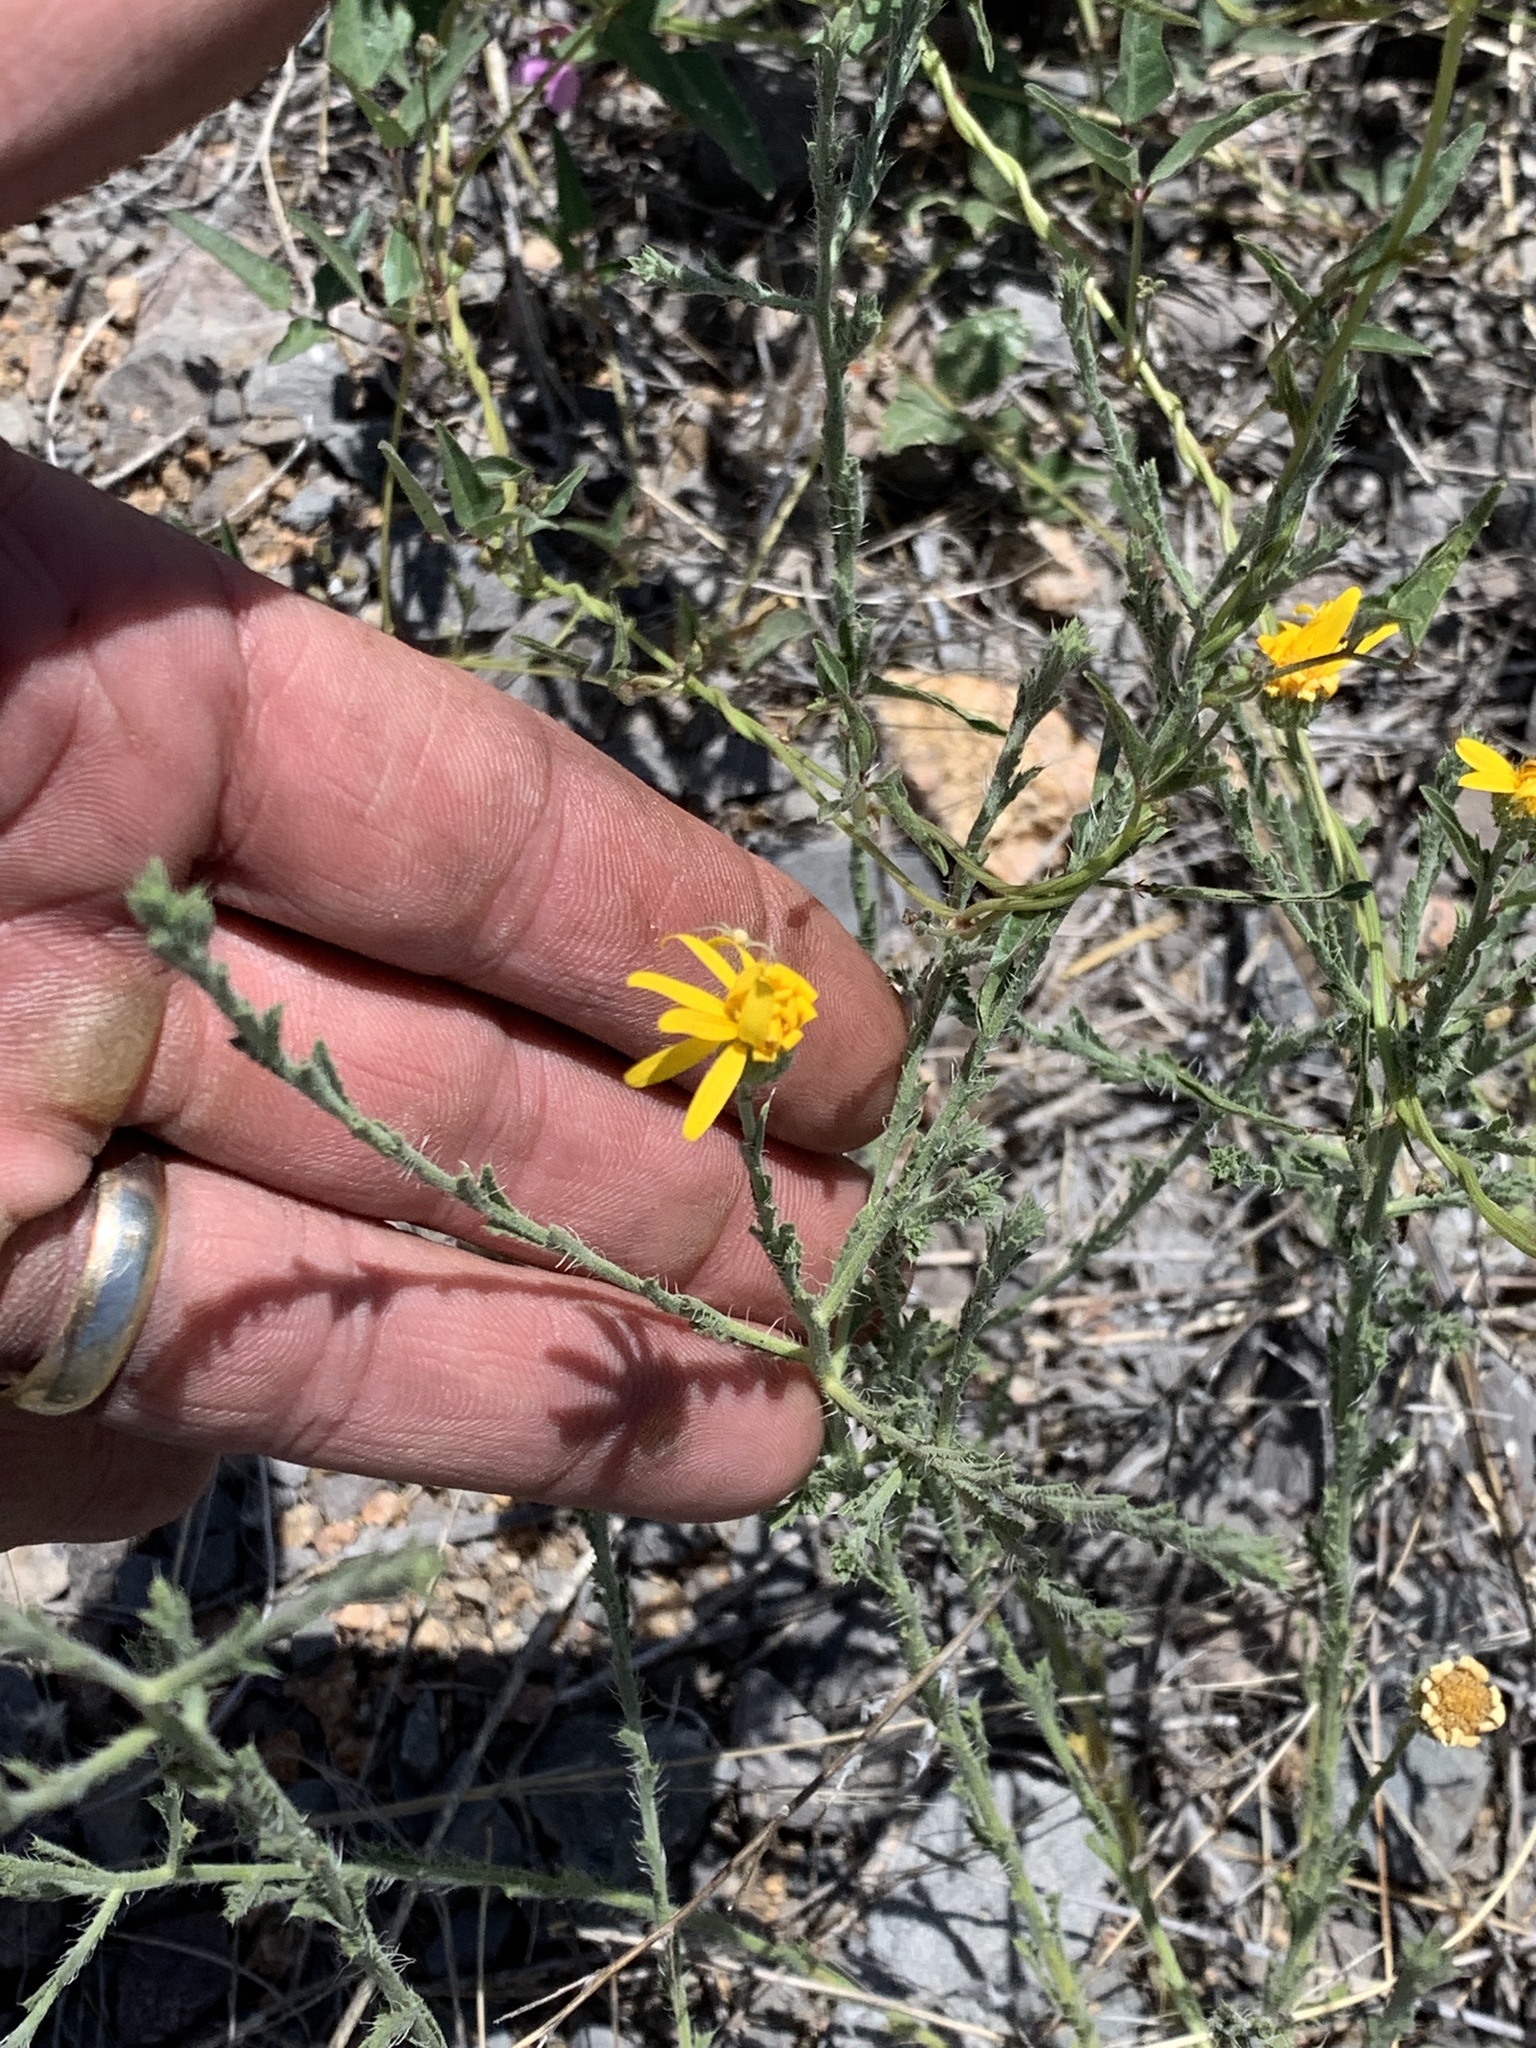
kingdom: Plantae
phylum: Tracheophyta
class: Magnoliopsida
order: Asterales
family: Asteraceae
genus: Xanthisma
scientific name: Xanthisma spinulosum
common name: Spiny goldenweed
